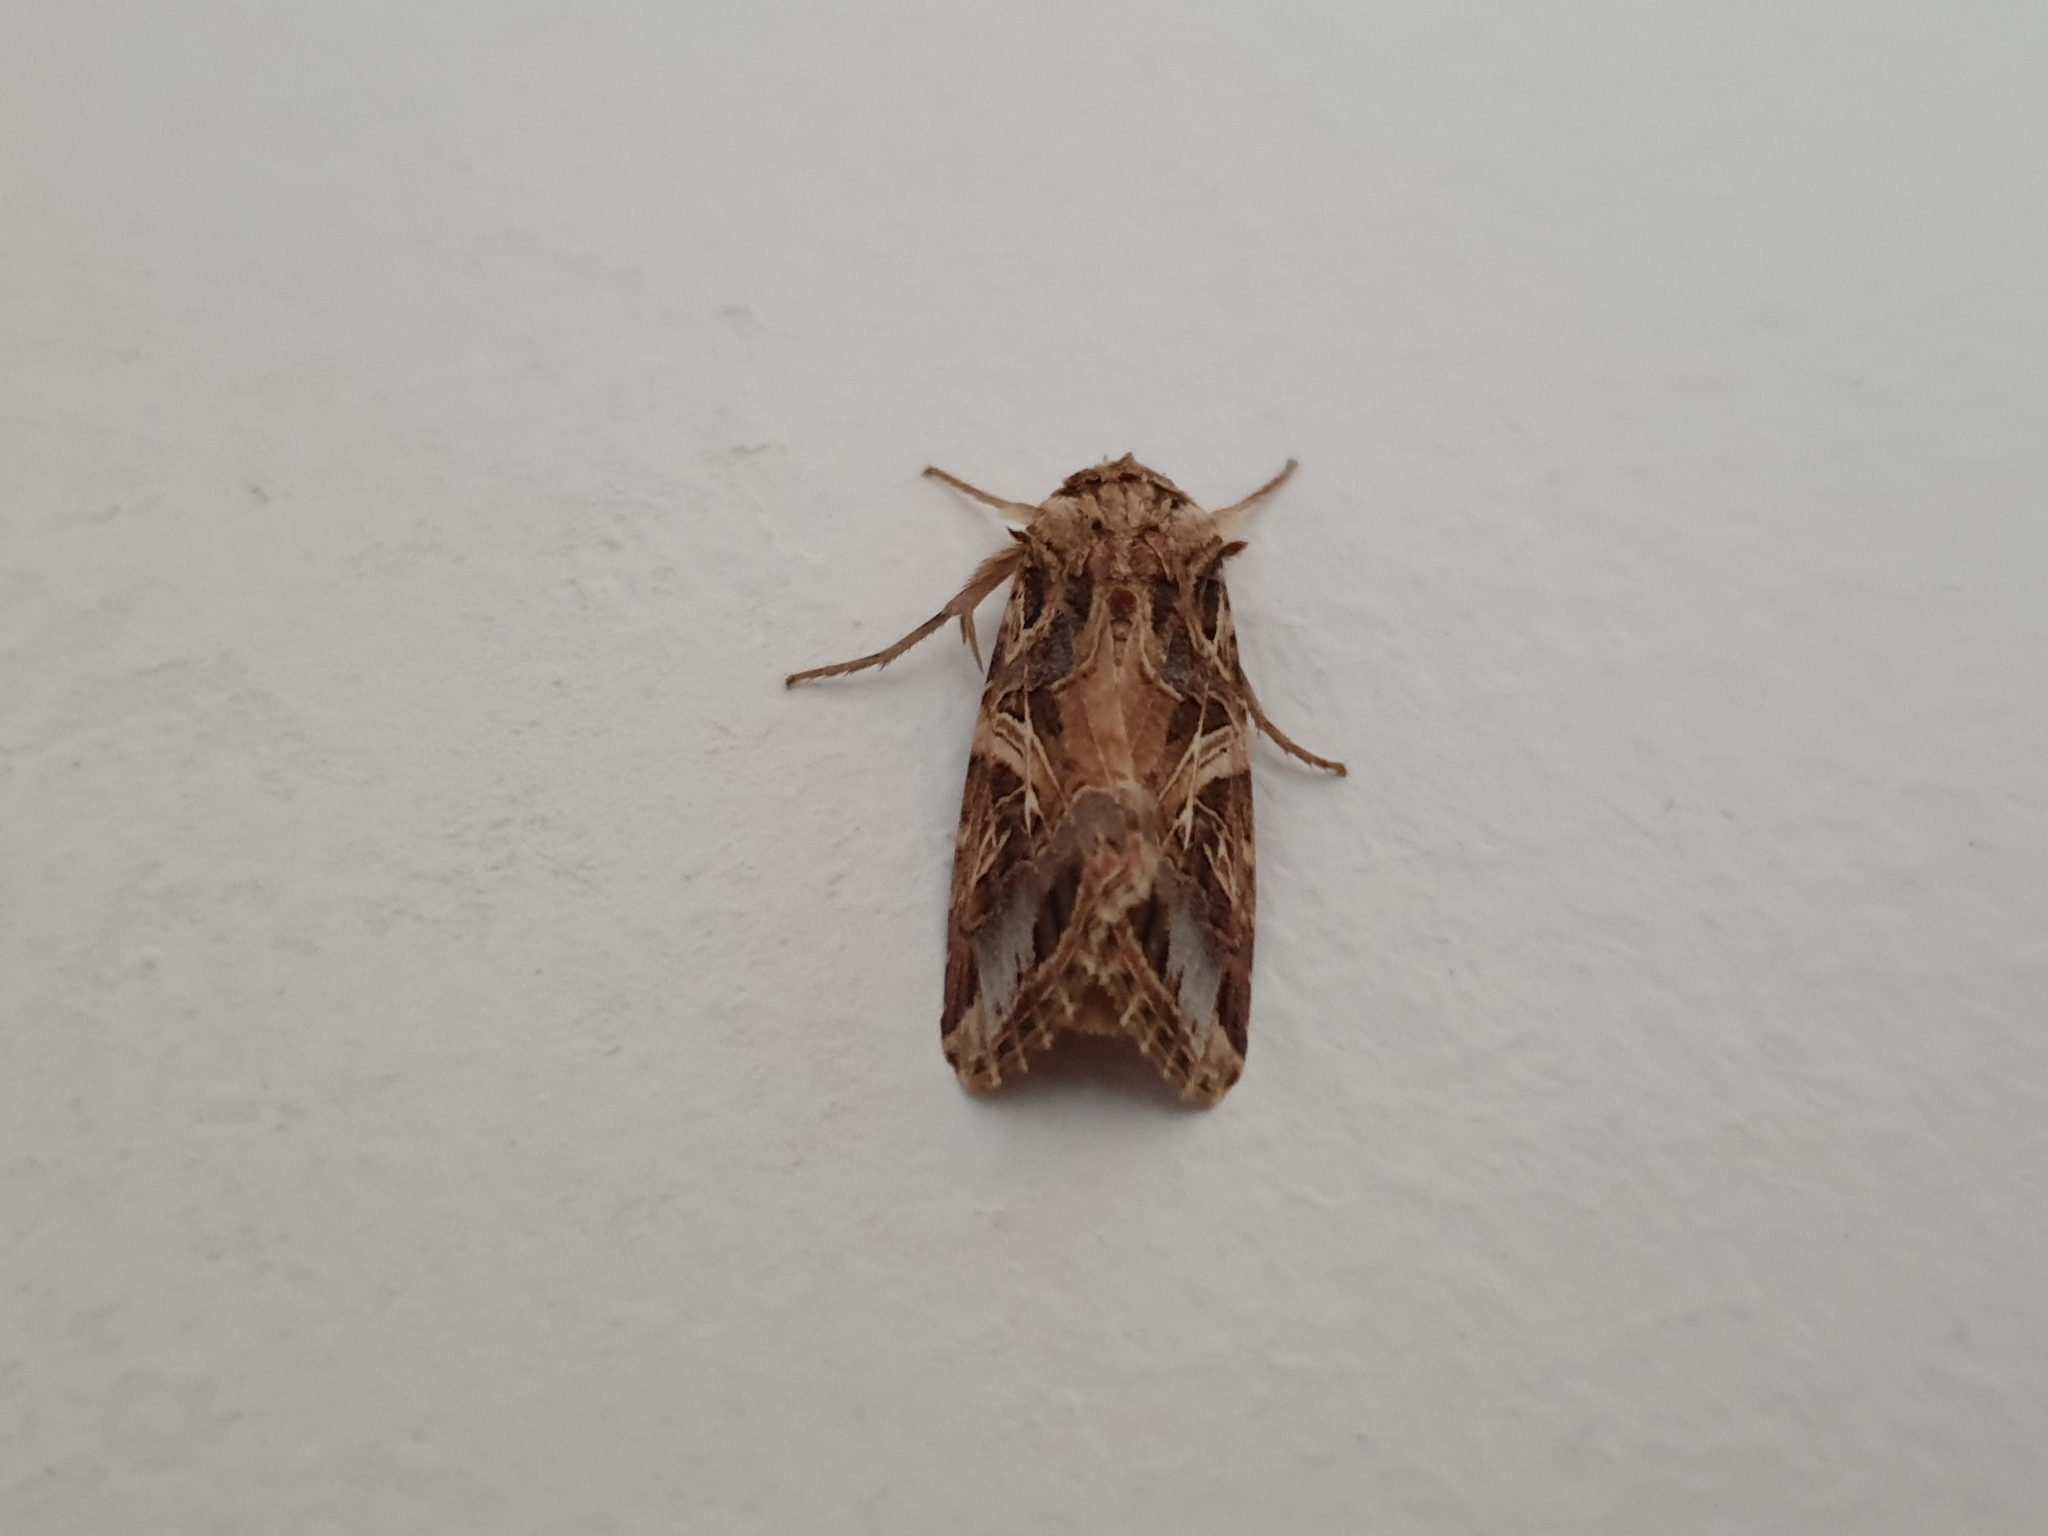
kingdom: Animalia
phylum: Arthropoda
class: Insecta
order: Lepidoptera
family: Noctuidae
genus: Spodoptera
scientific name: Spodoptera litura
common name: Asian cotton leafworm
